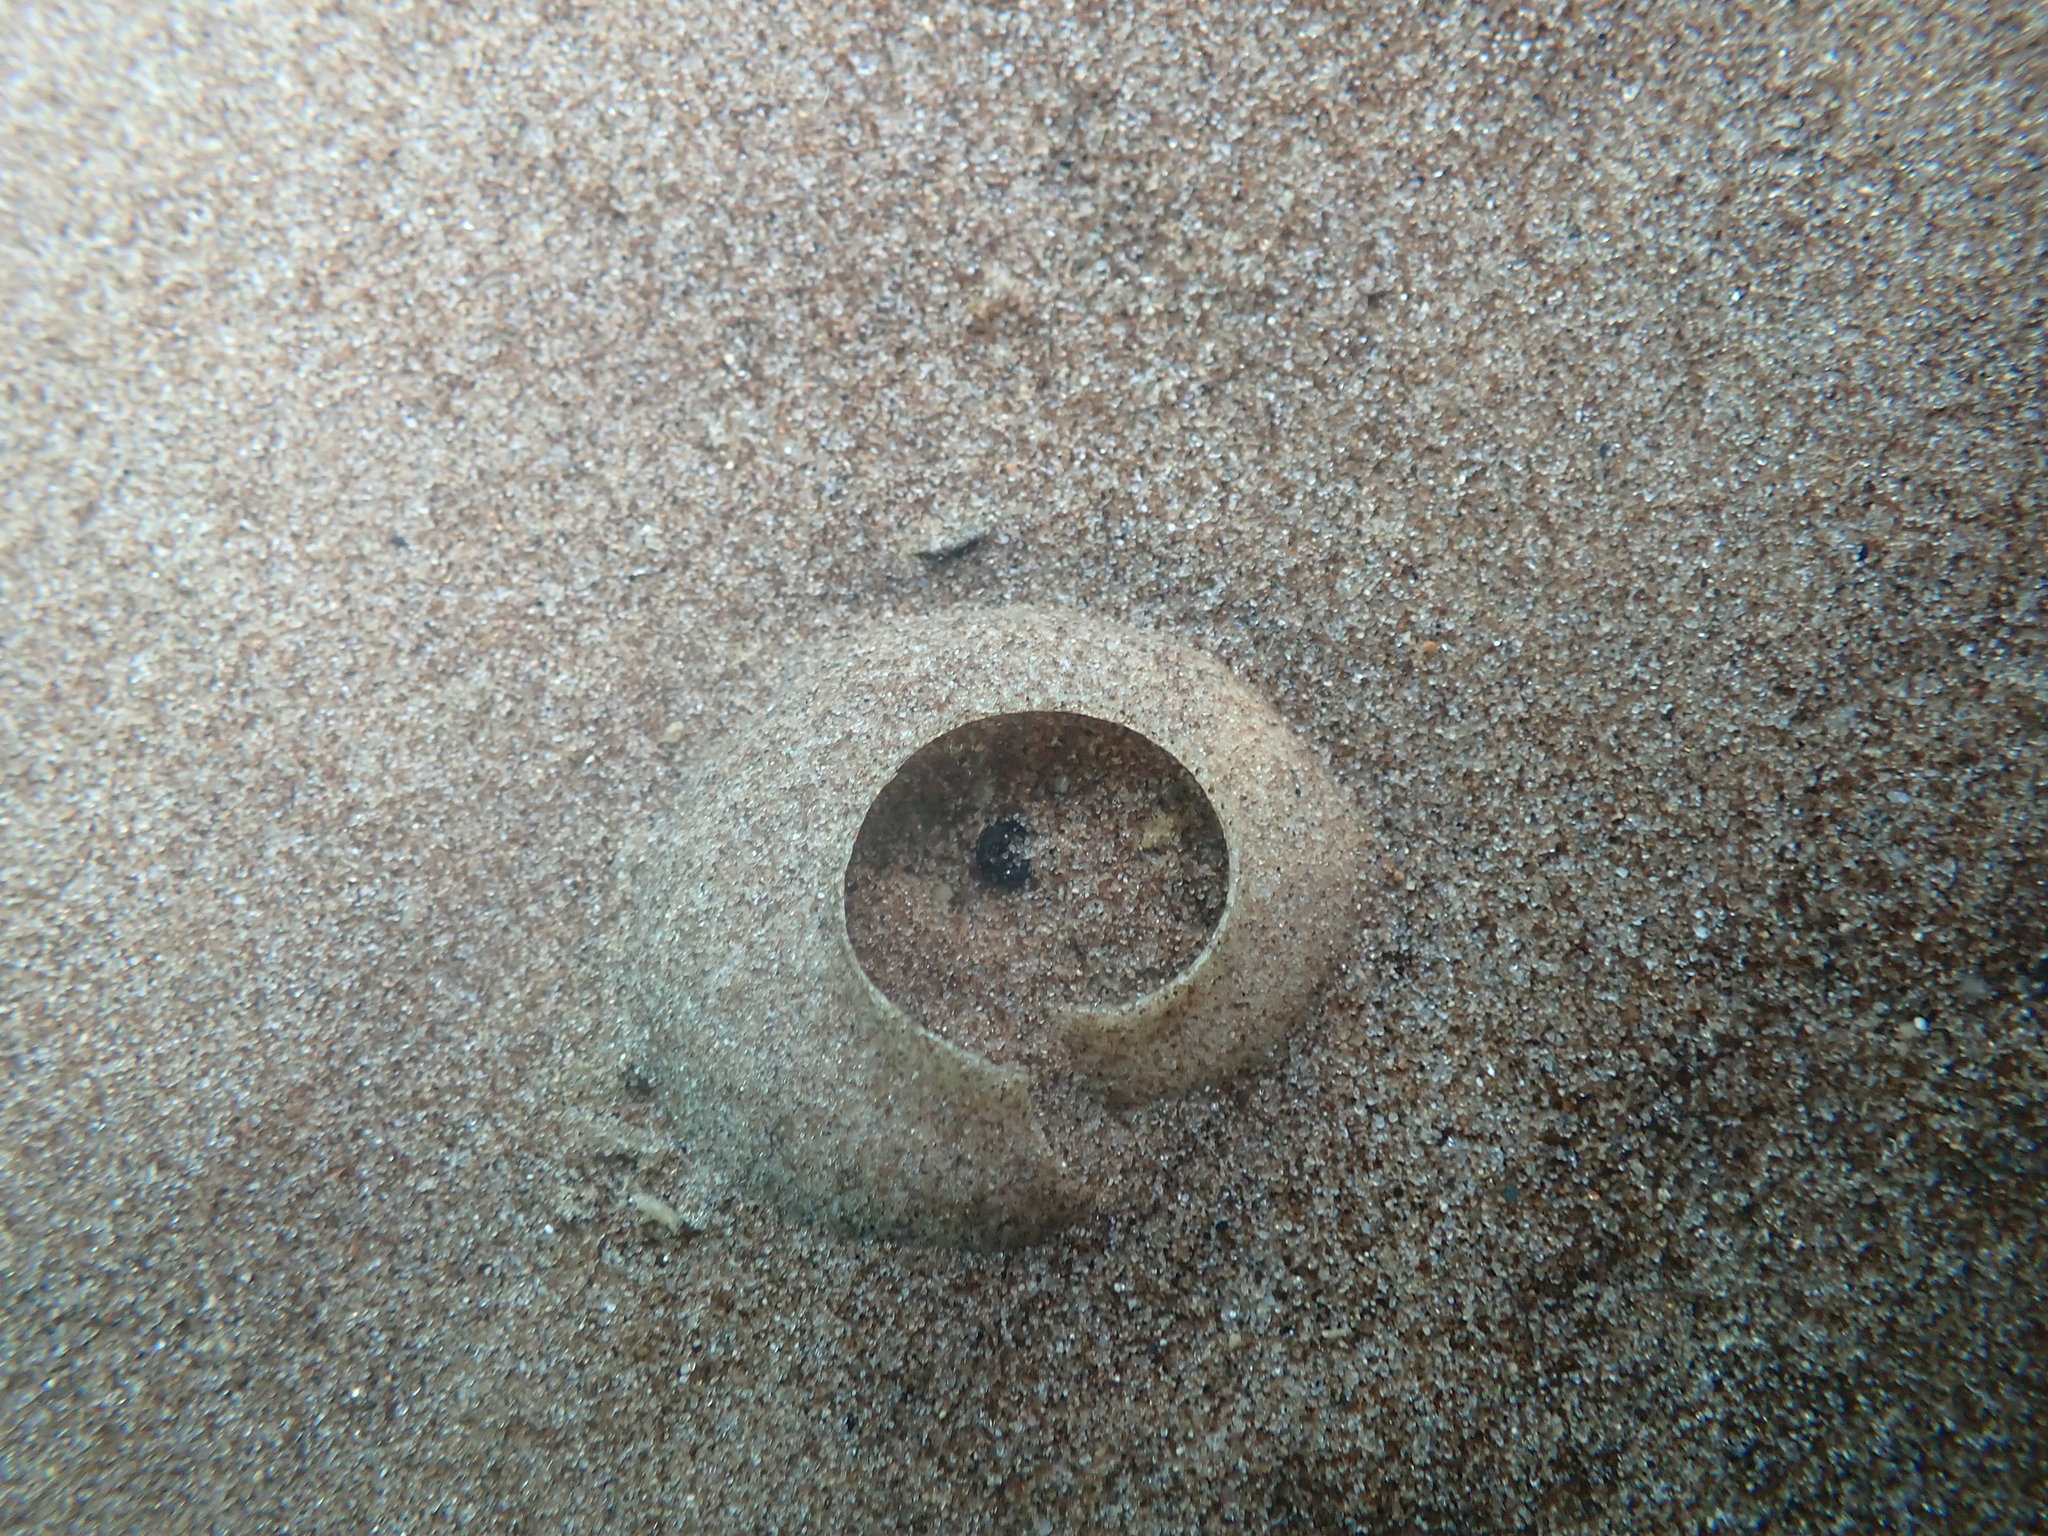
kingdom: Animalia
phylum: Mollusca
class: Gastropoda
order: Littorinimorpha
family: Naticidae
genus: Notocochlis
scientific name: Notocochlis gualteriana
